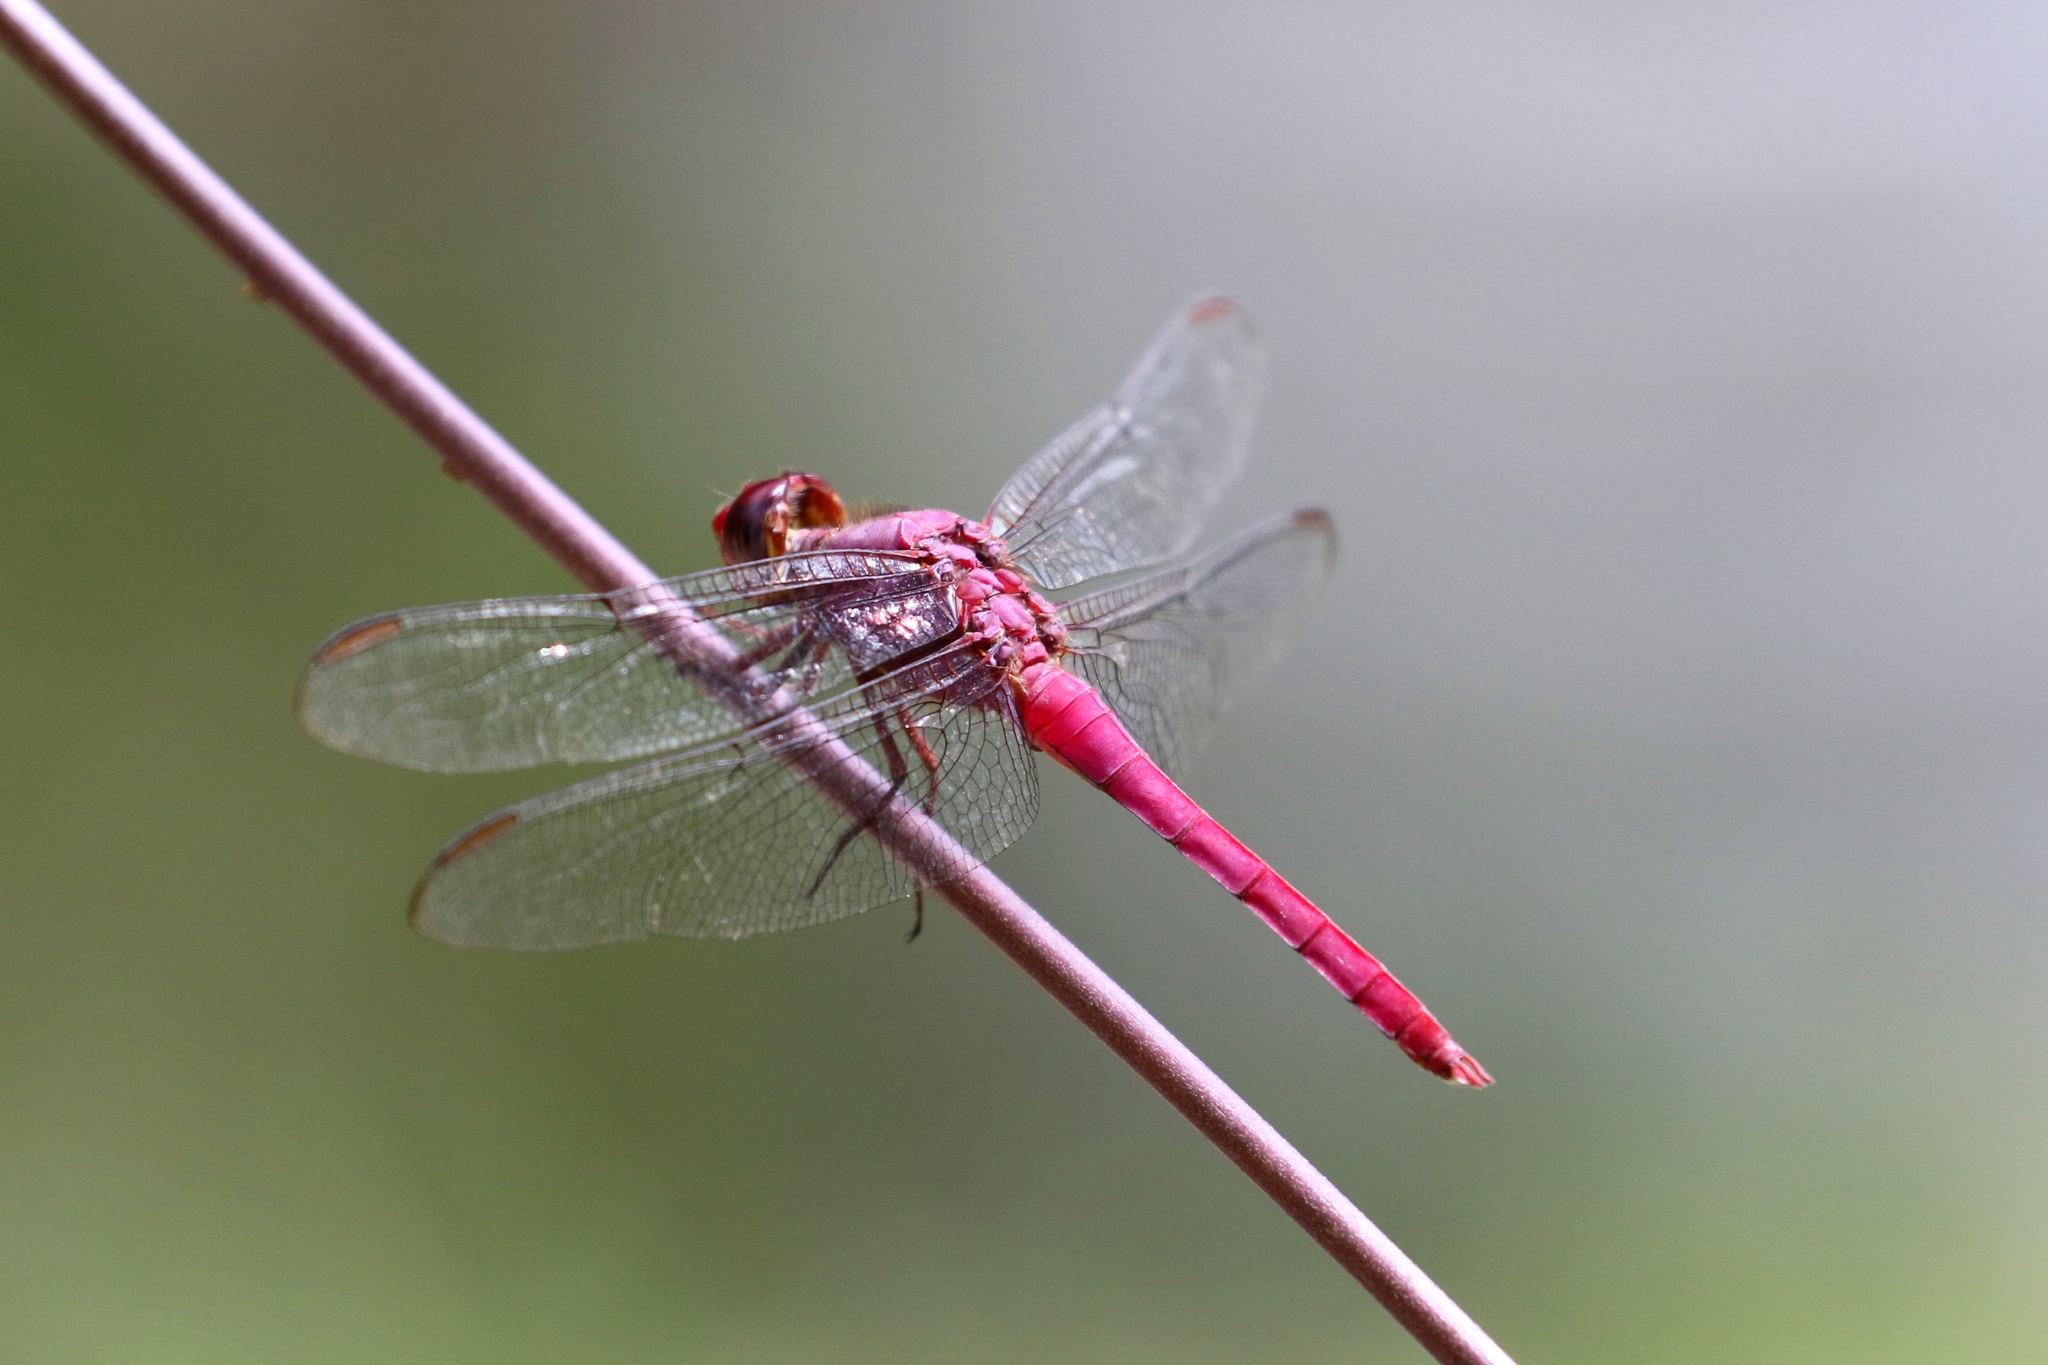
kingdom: Animalia
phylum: Arthropoda
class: Insecta
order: Odonata
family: Libellulidae
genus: Orthemis
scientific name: Orthemis aequilibris
